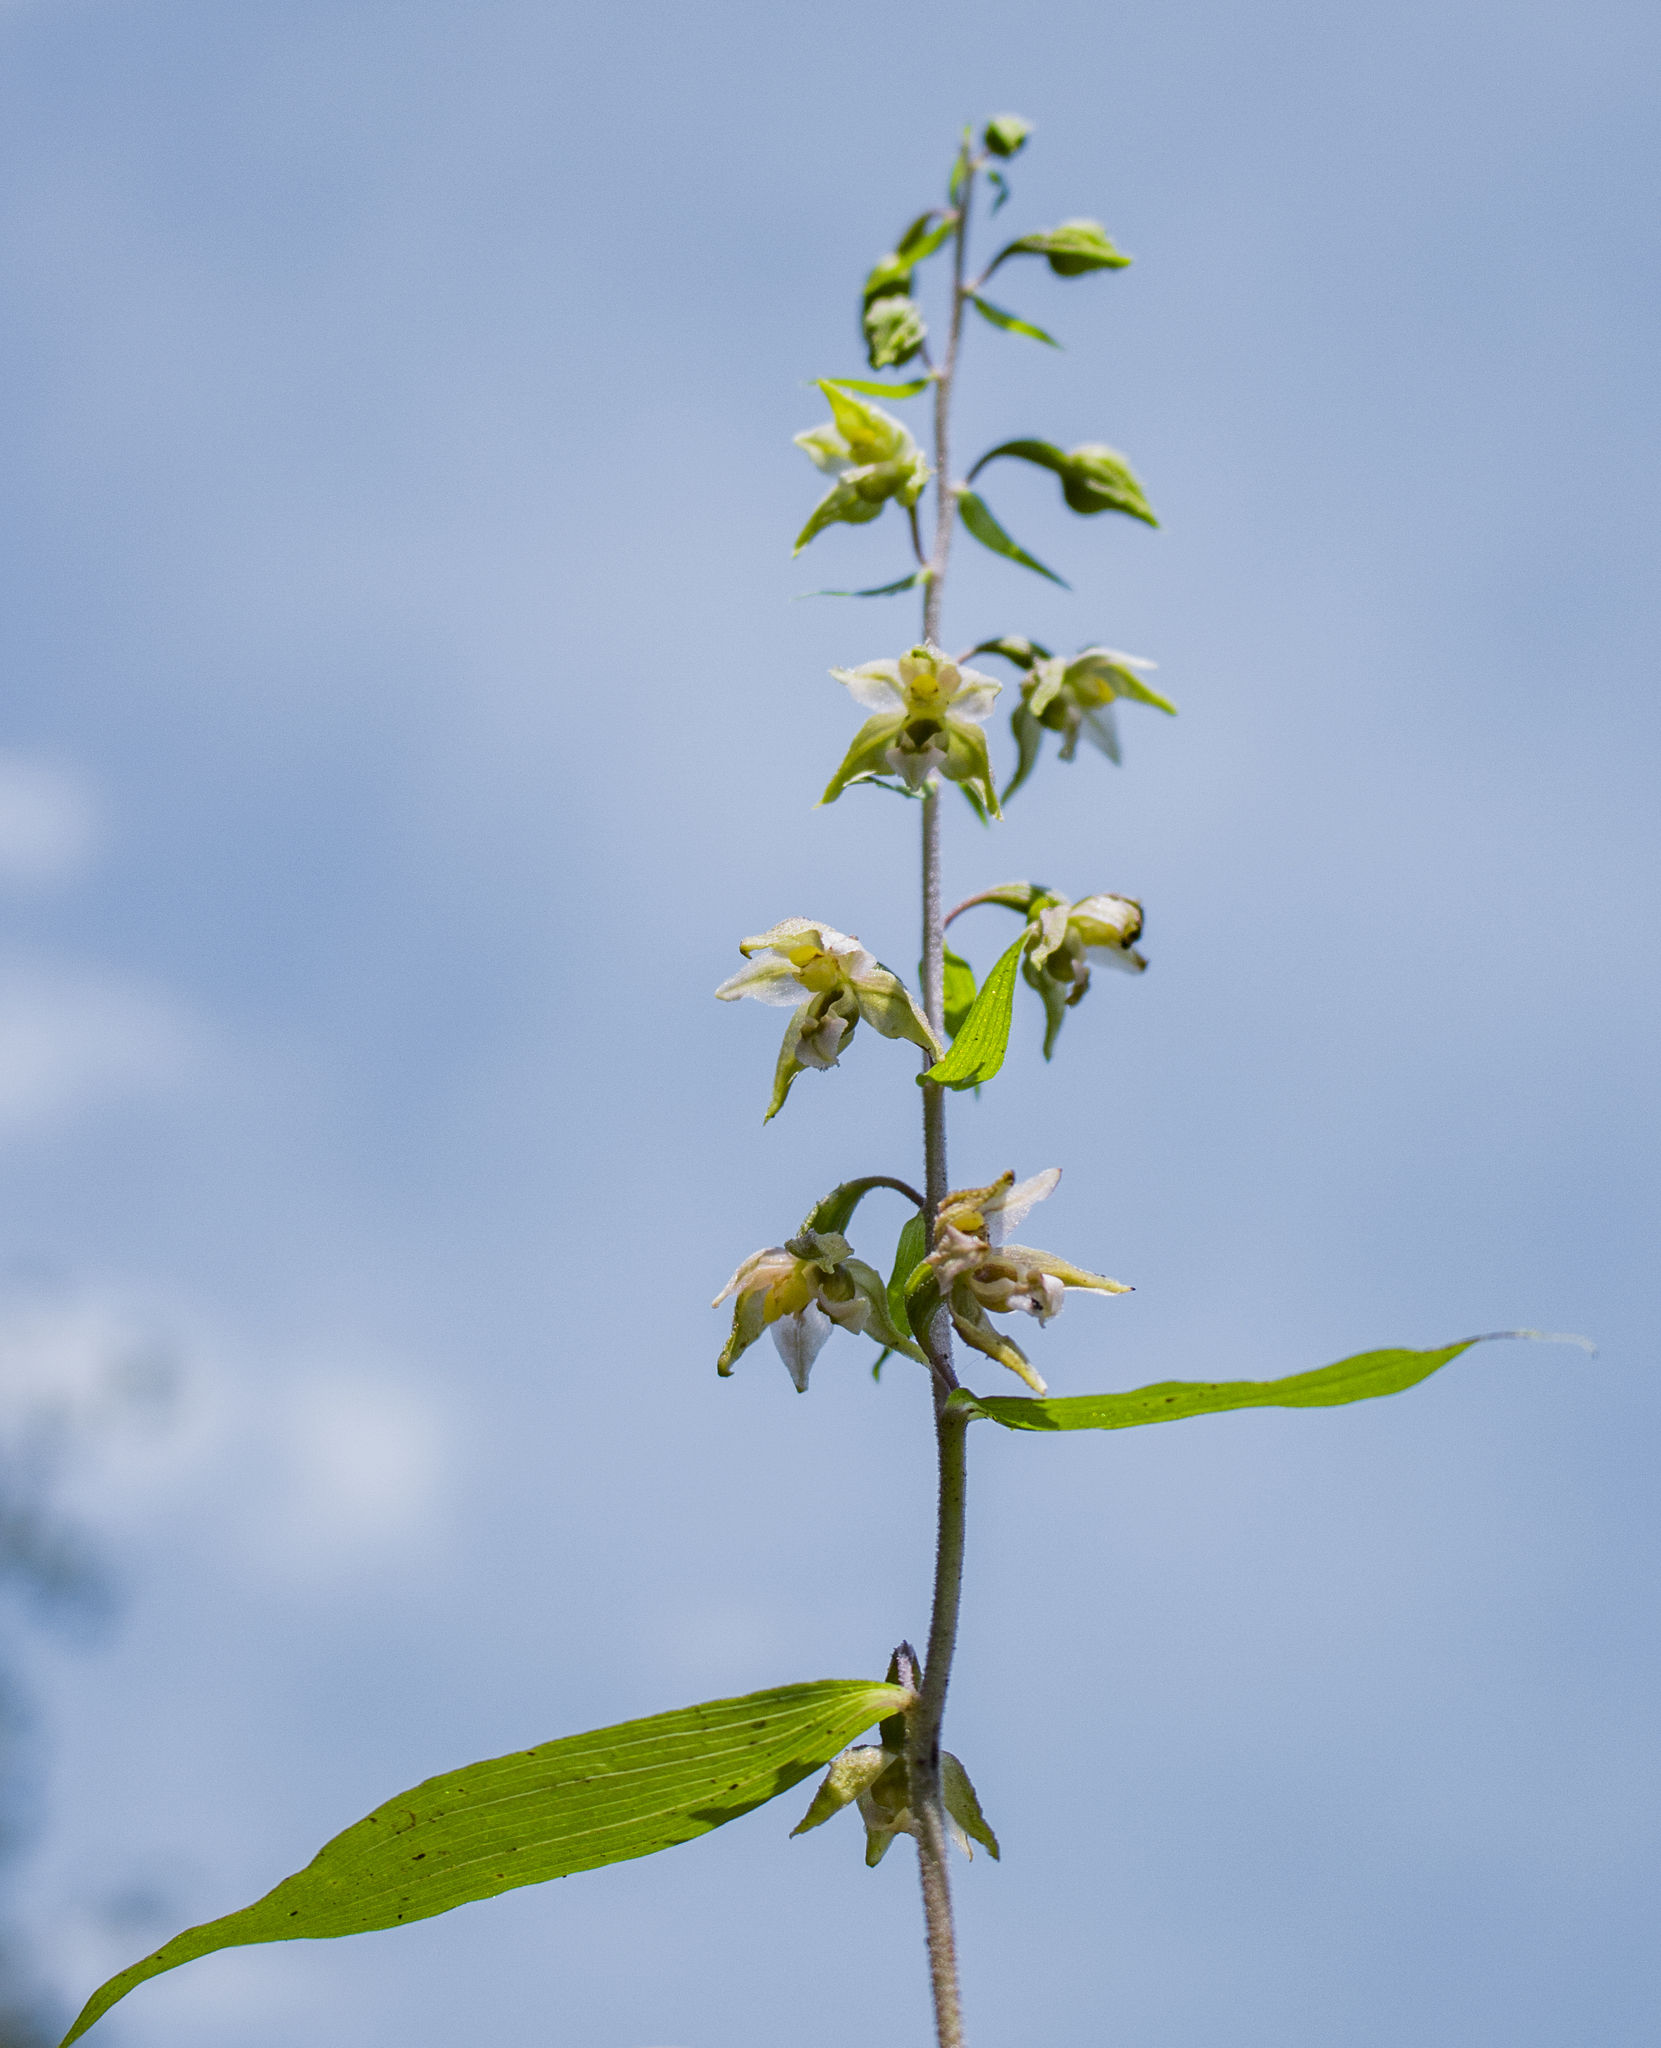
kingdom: Plantae
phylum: Tracheophyta
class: Liliopsida
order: Asparagales
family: Orchidaceae
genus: Epipactis
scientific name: Epipactis helleborine
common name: Broad-leaved helleborine
